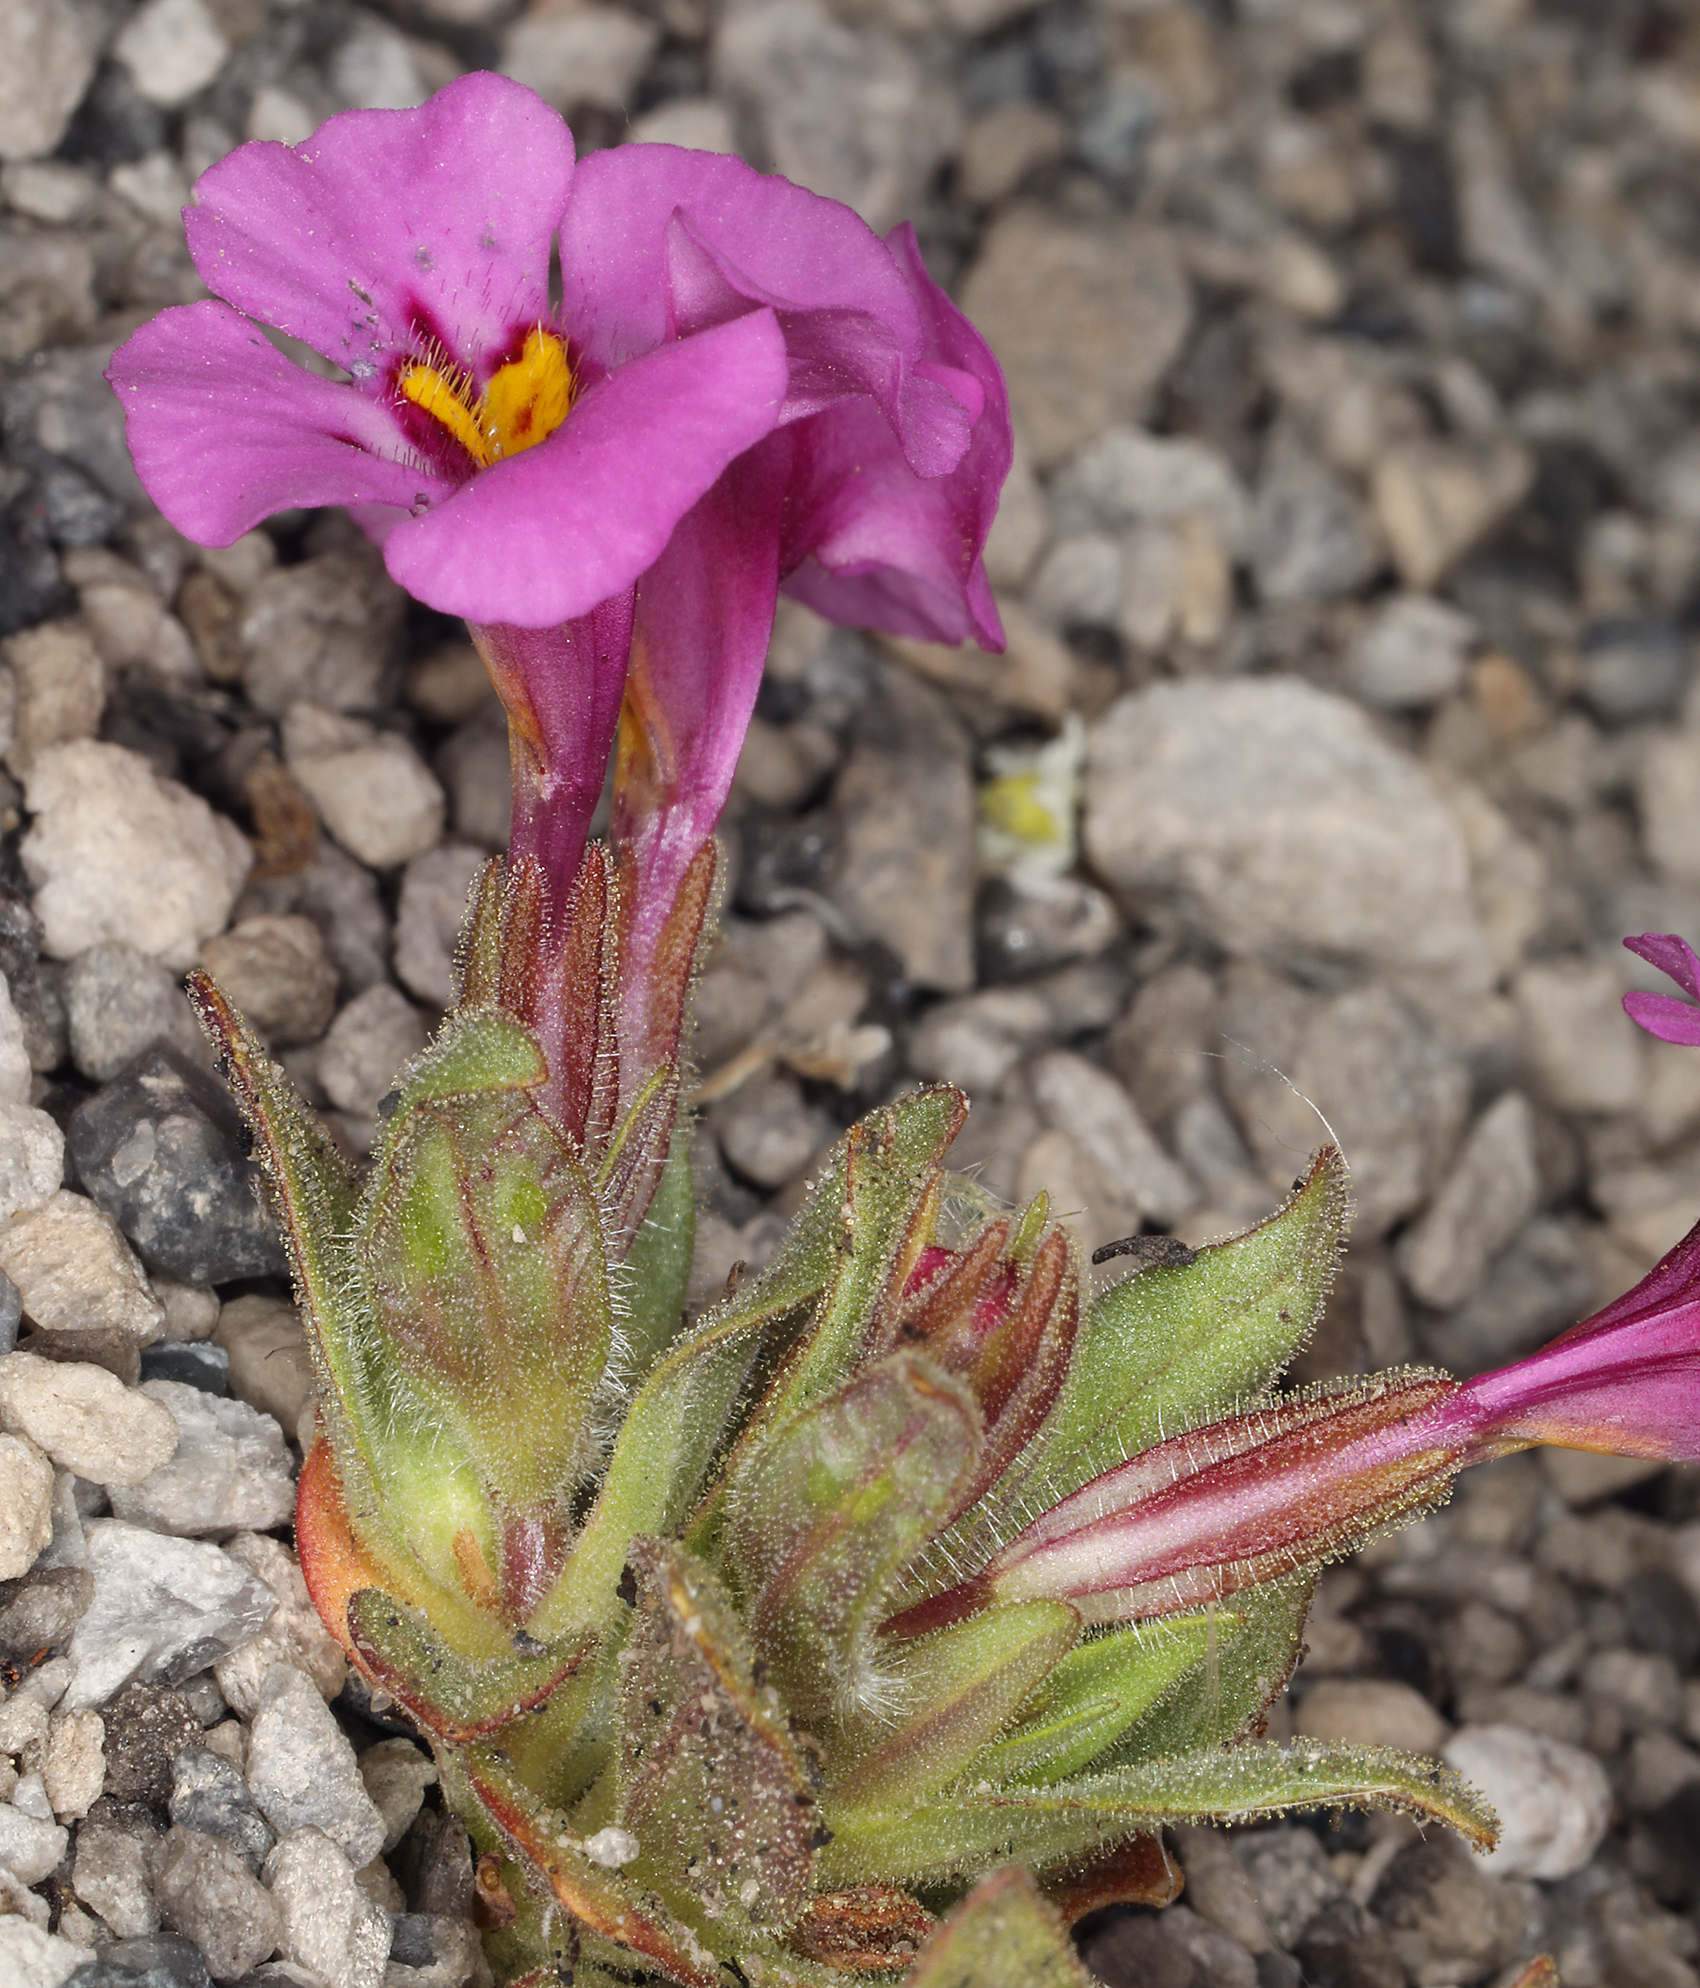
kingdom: Plantae
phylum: Tracheophyta
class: Magnoliopsida
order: Lamiales
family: Phrymaceae
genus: Diplacus
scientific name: Diplacus mephiticus
